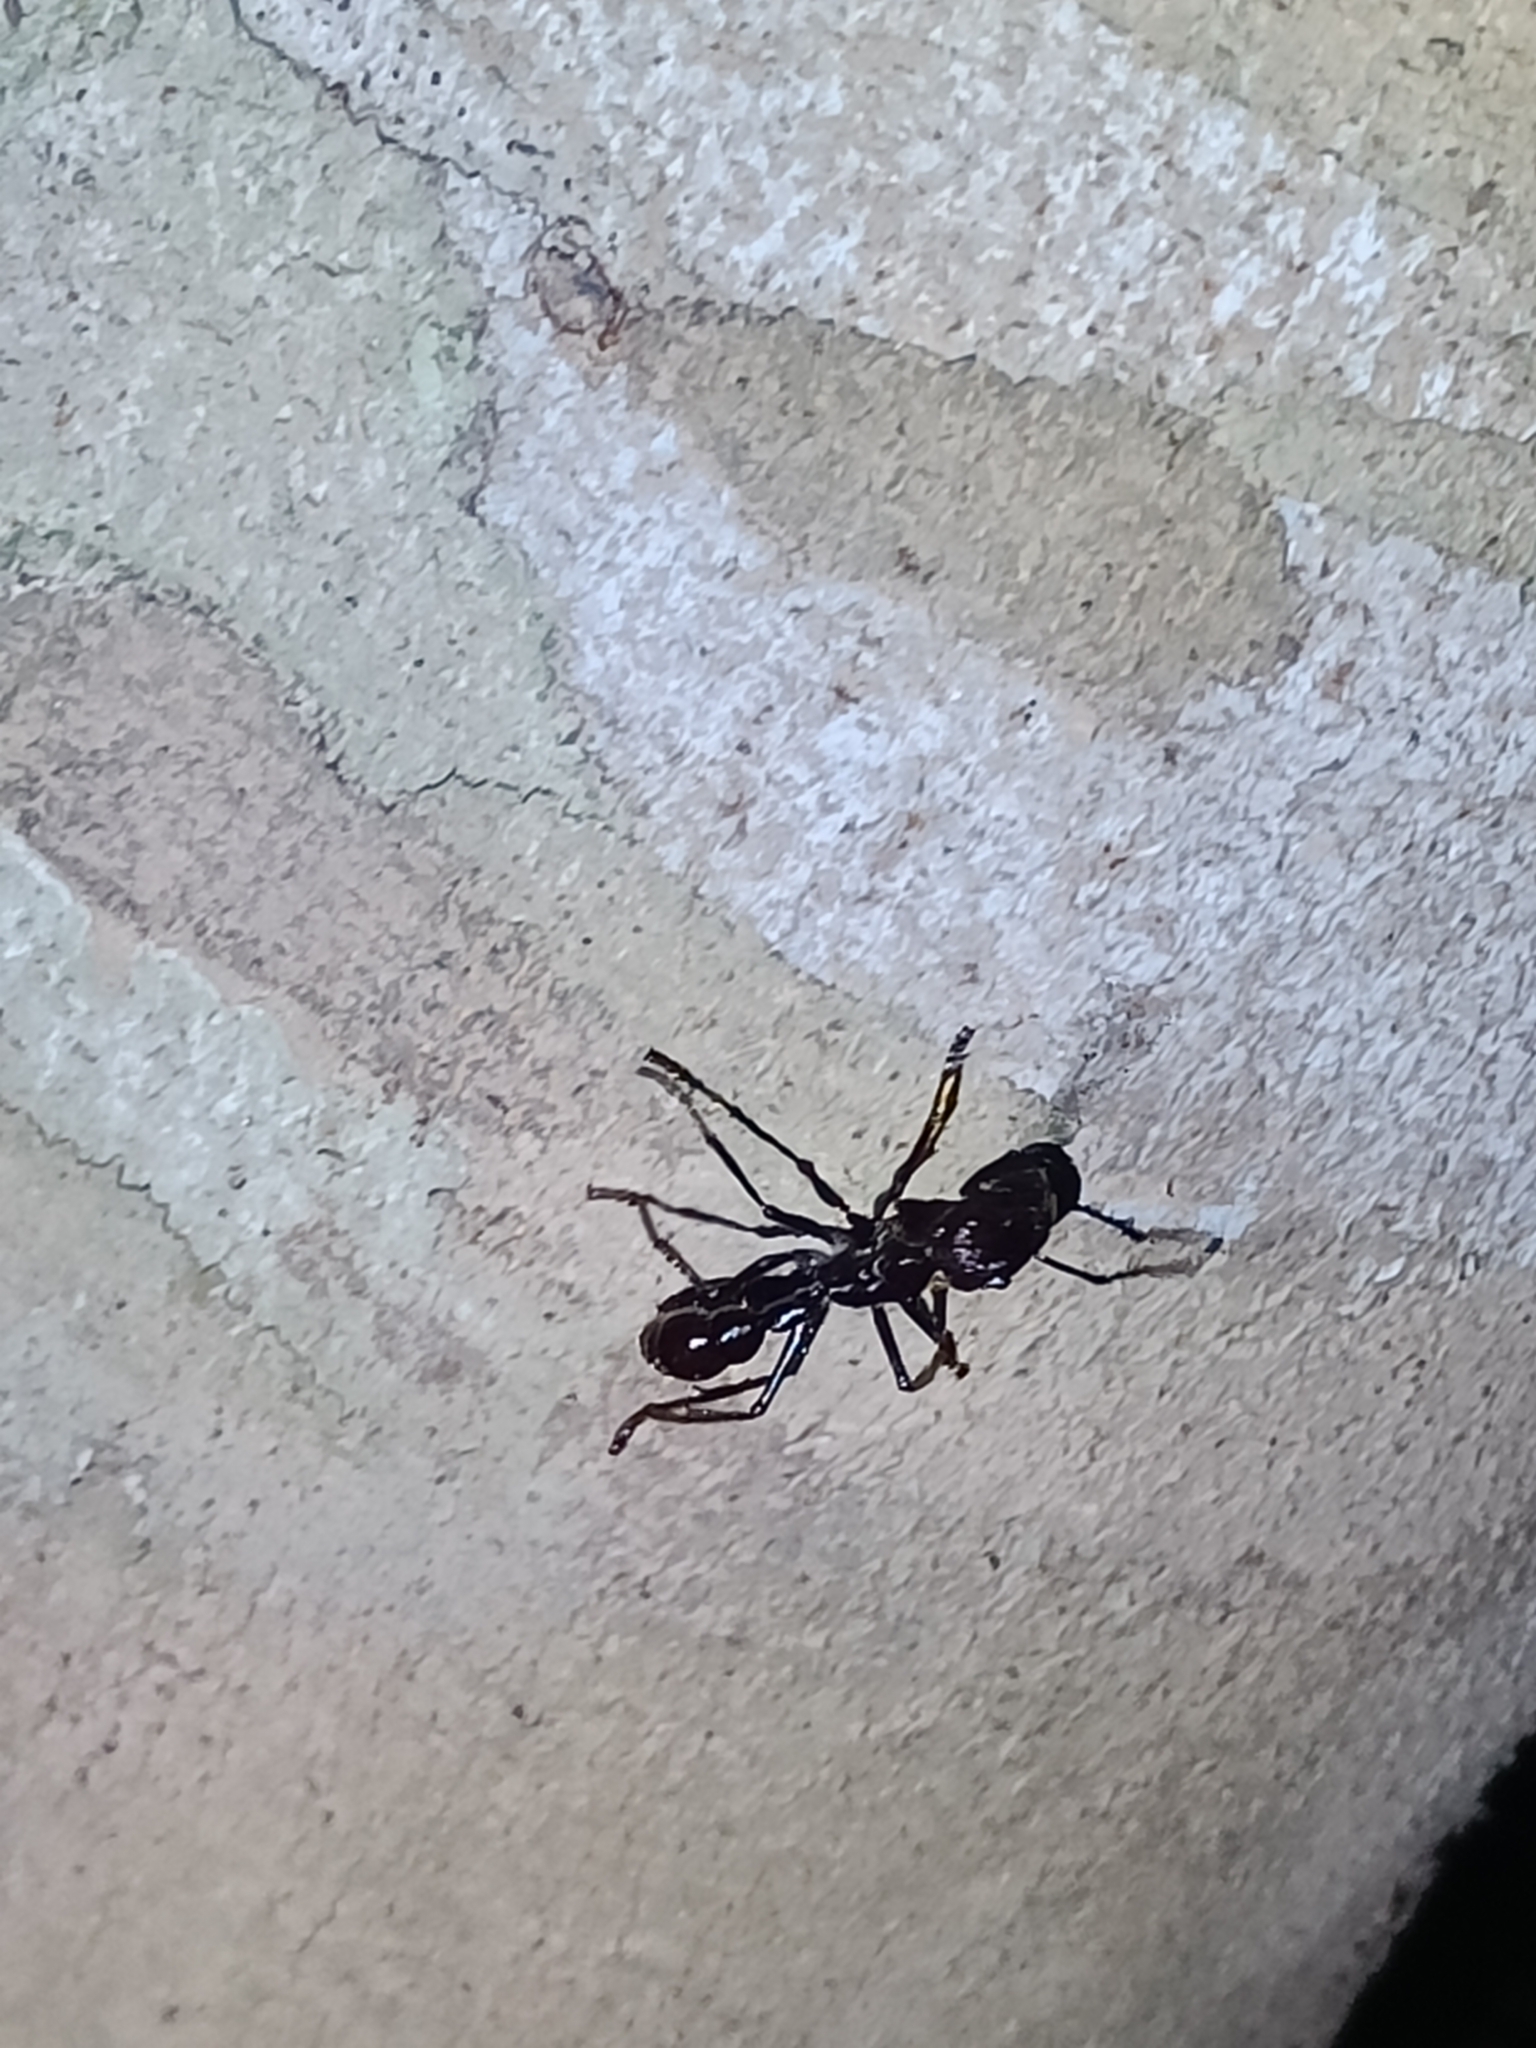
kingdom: Animalia
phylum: Arthropoda
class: Insecta
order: Hymenoptera
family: Formicidae
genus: Paraponera
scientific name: Paraponera clavata
